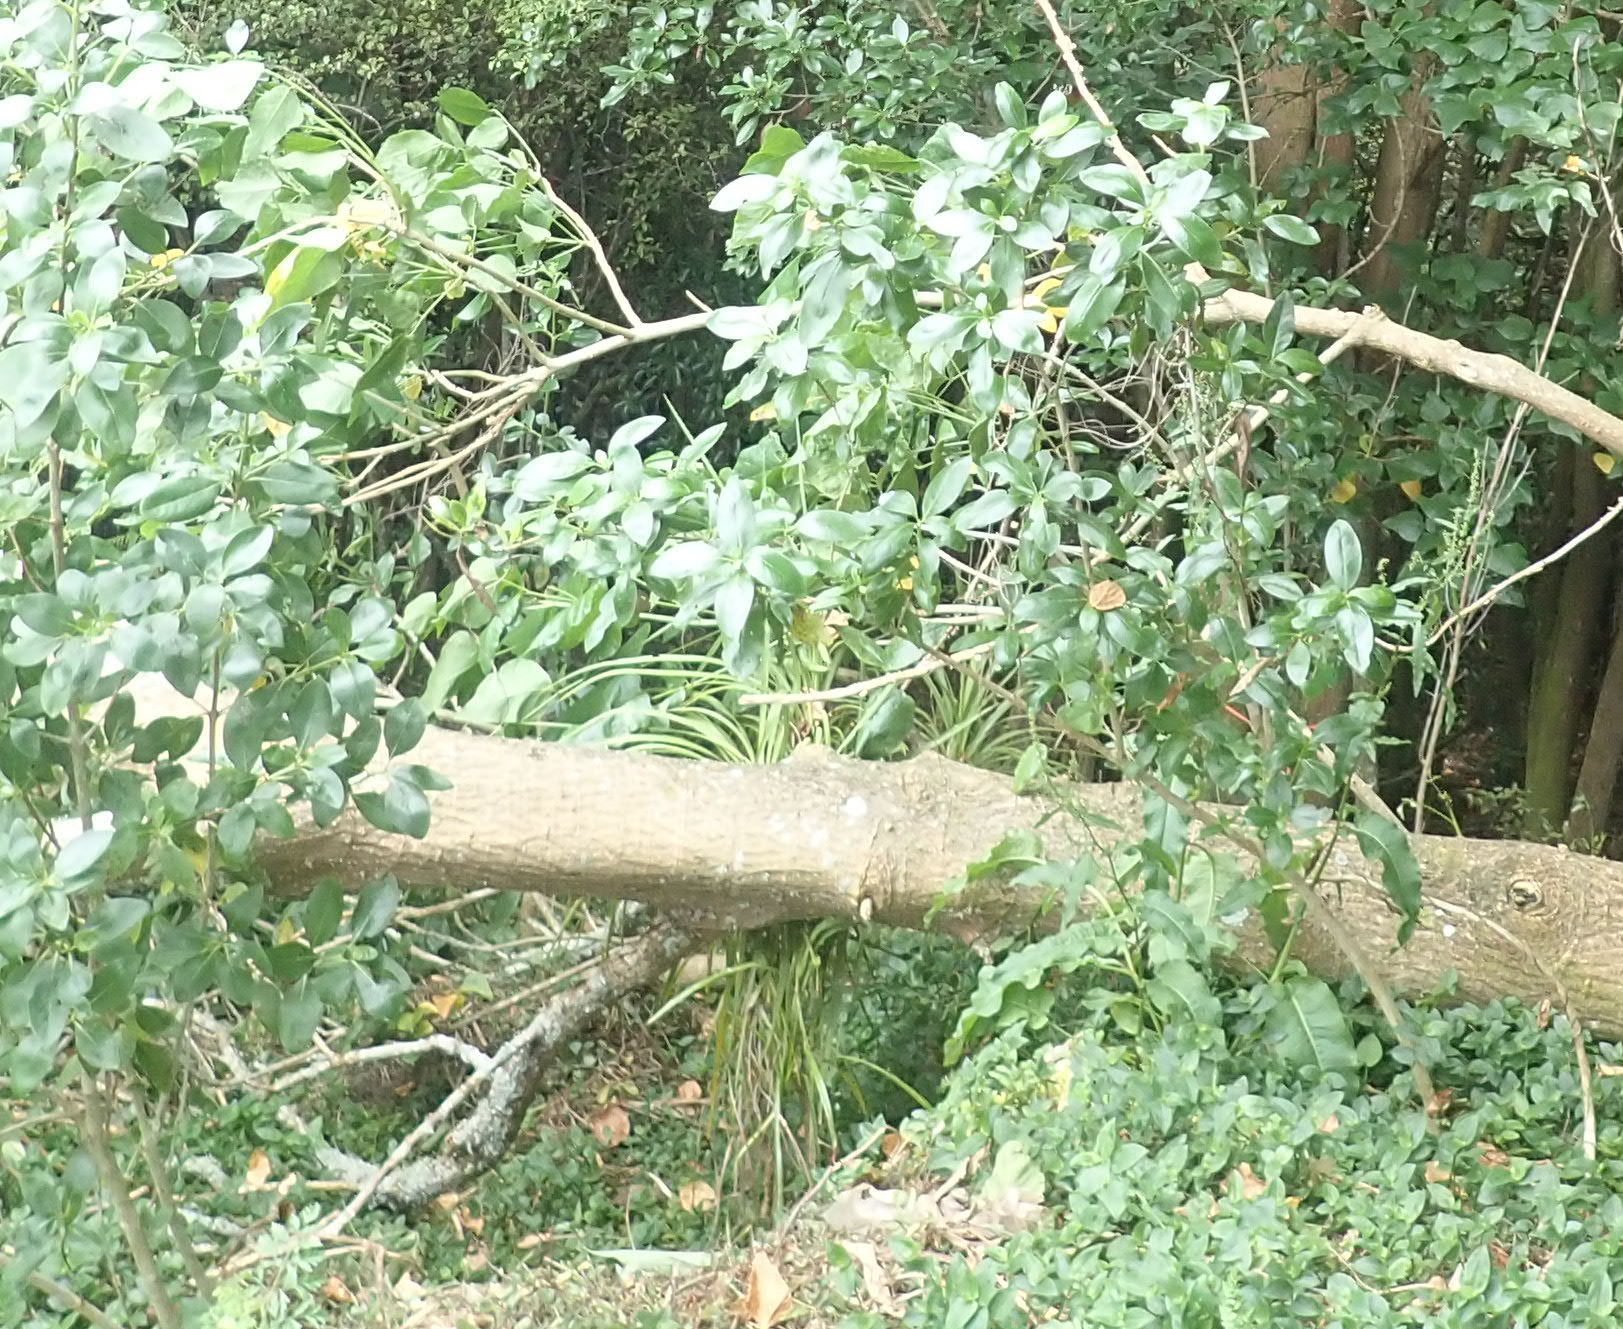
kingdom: Plantae
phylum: Tracheophyta
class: Liliopsida
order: Asparagales
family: Asparagaceae
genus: Cordyline
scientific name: Cordyline australis
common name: Cabbage-palm
